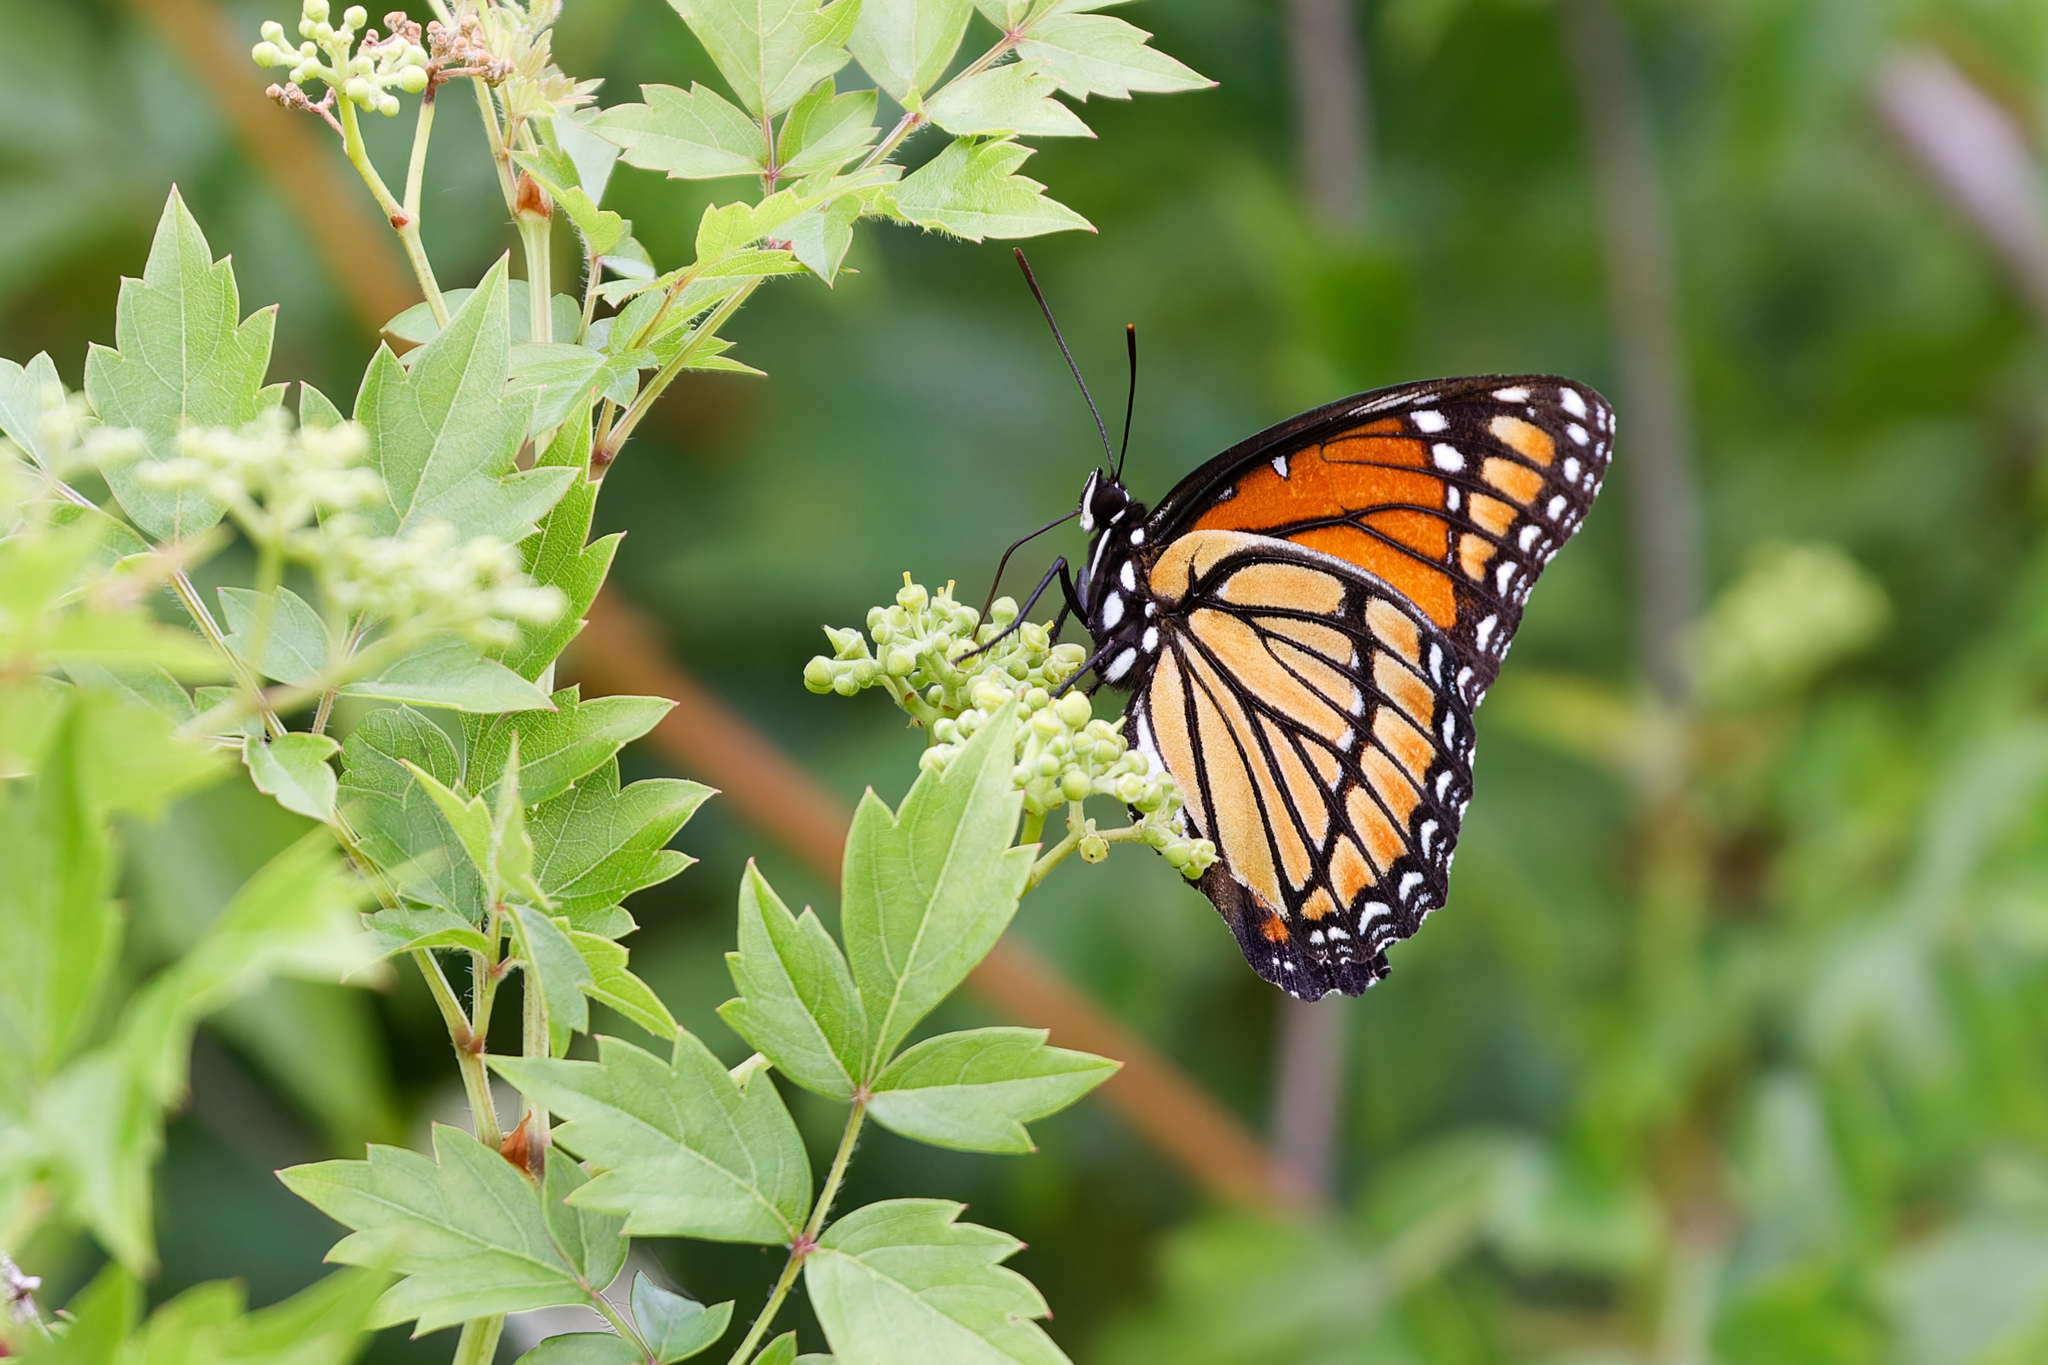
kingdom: Animalia
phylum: Arthropoda
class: Insecta
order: Lepidoptera
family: Nymphalidae
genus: Limenitis
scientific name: Limenitis archippus
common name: Viceroy
